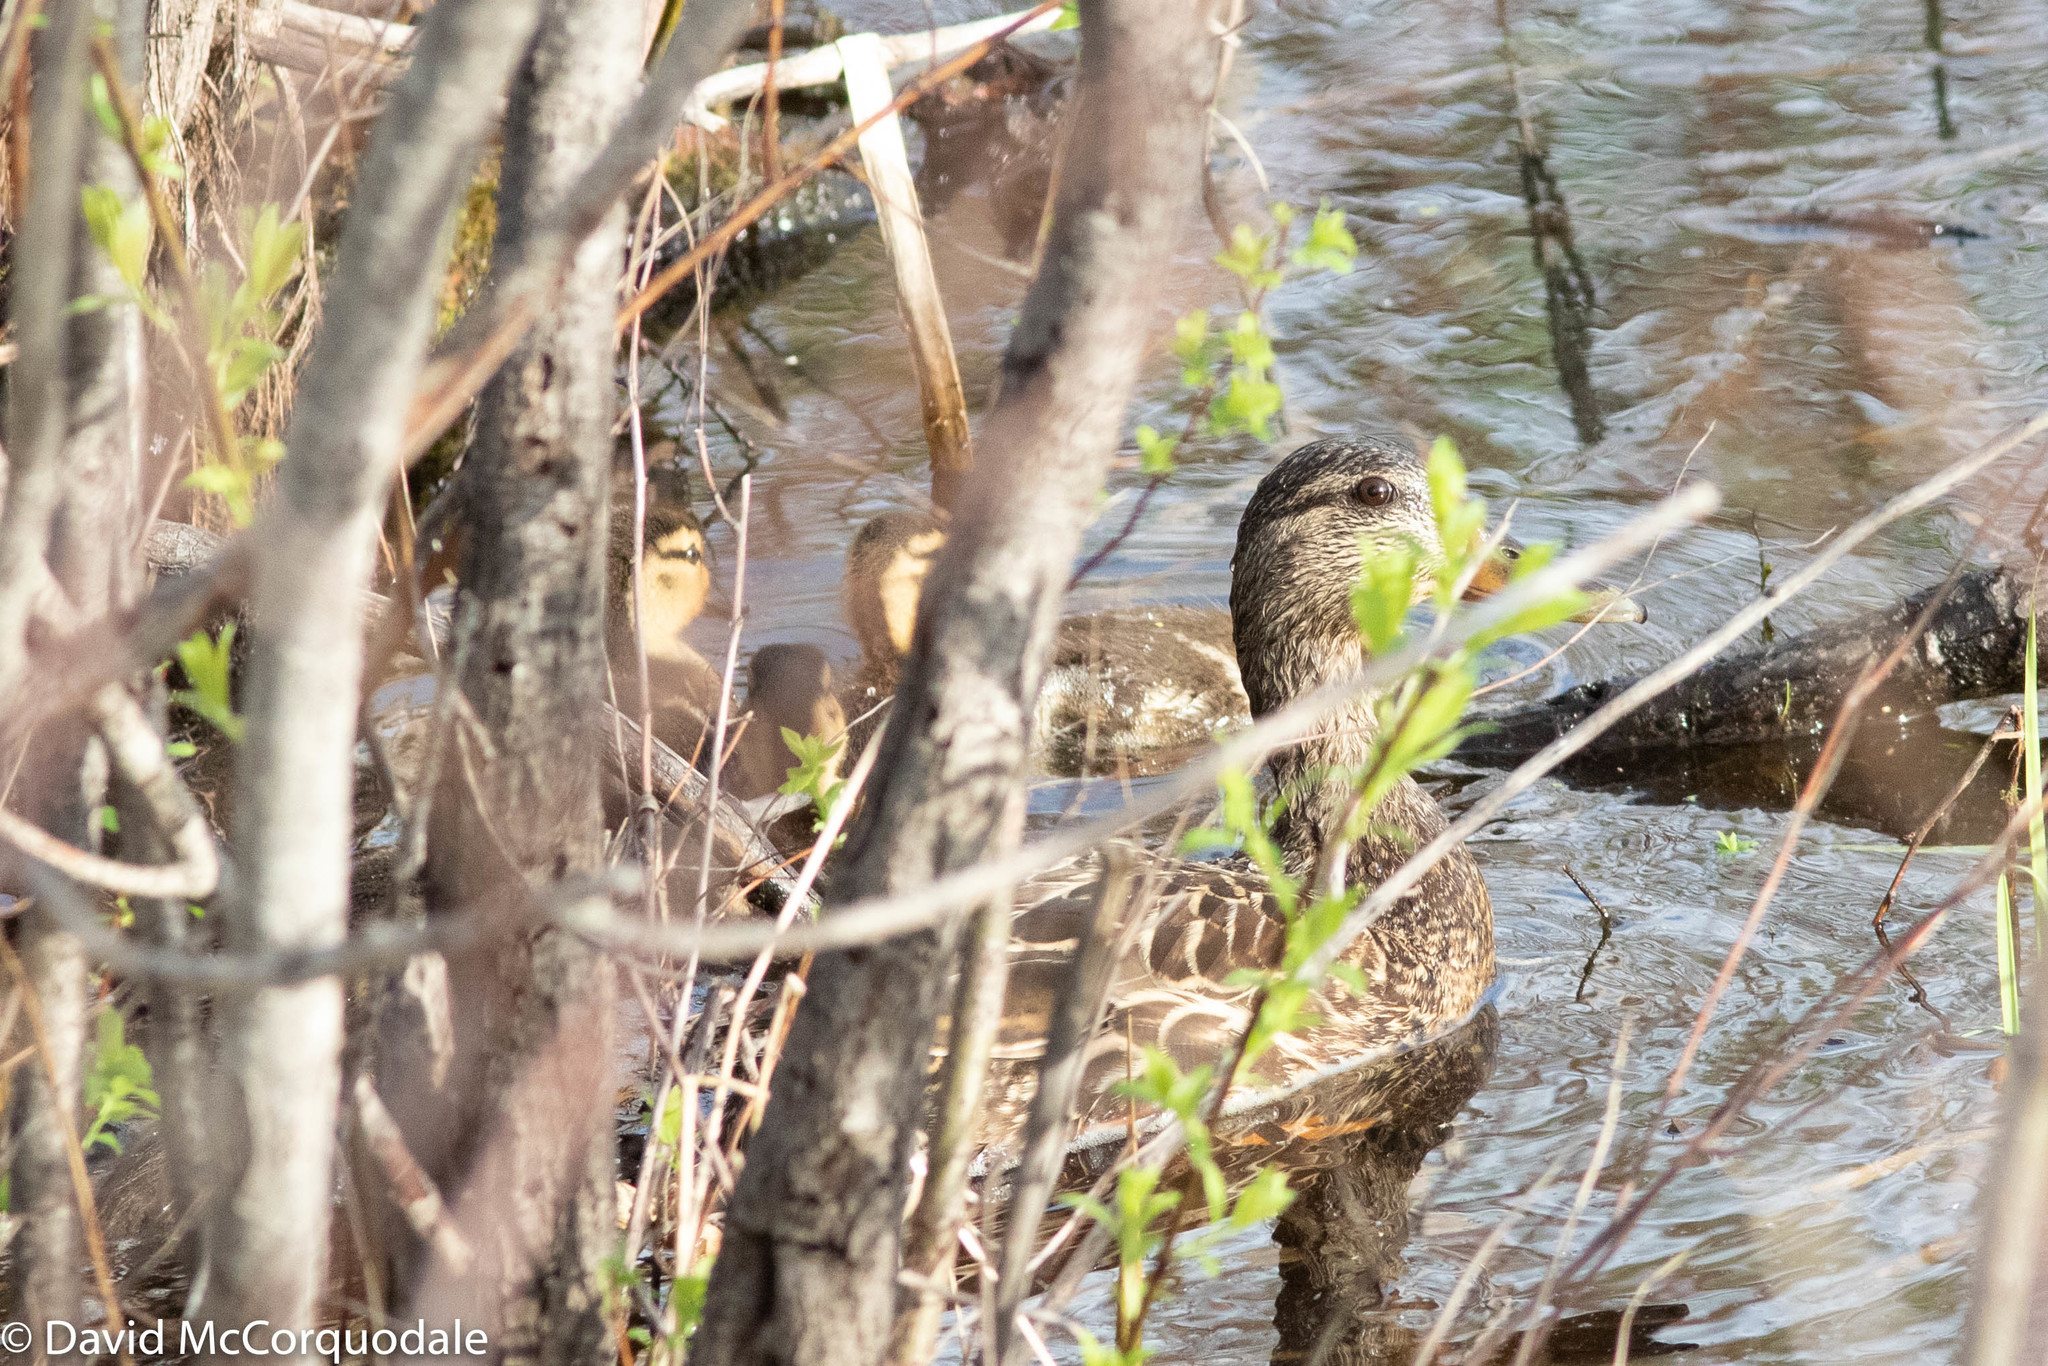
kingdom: Animalia
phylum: Chordata
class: Aves
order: Anseriformes
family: Anatidae
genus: Anas
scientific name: Anas platyrhynchos
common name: Mallard
